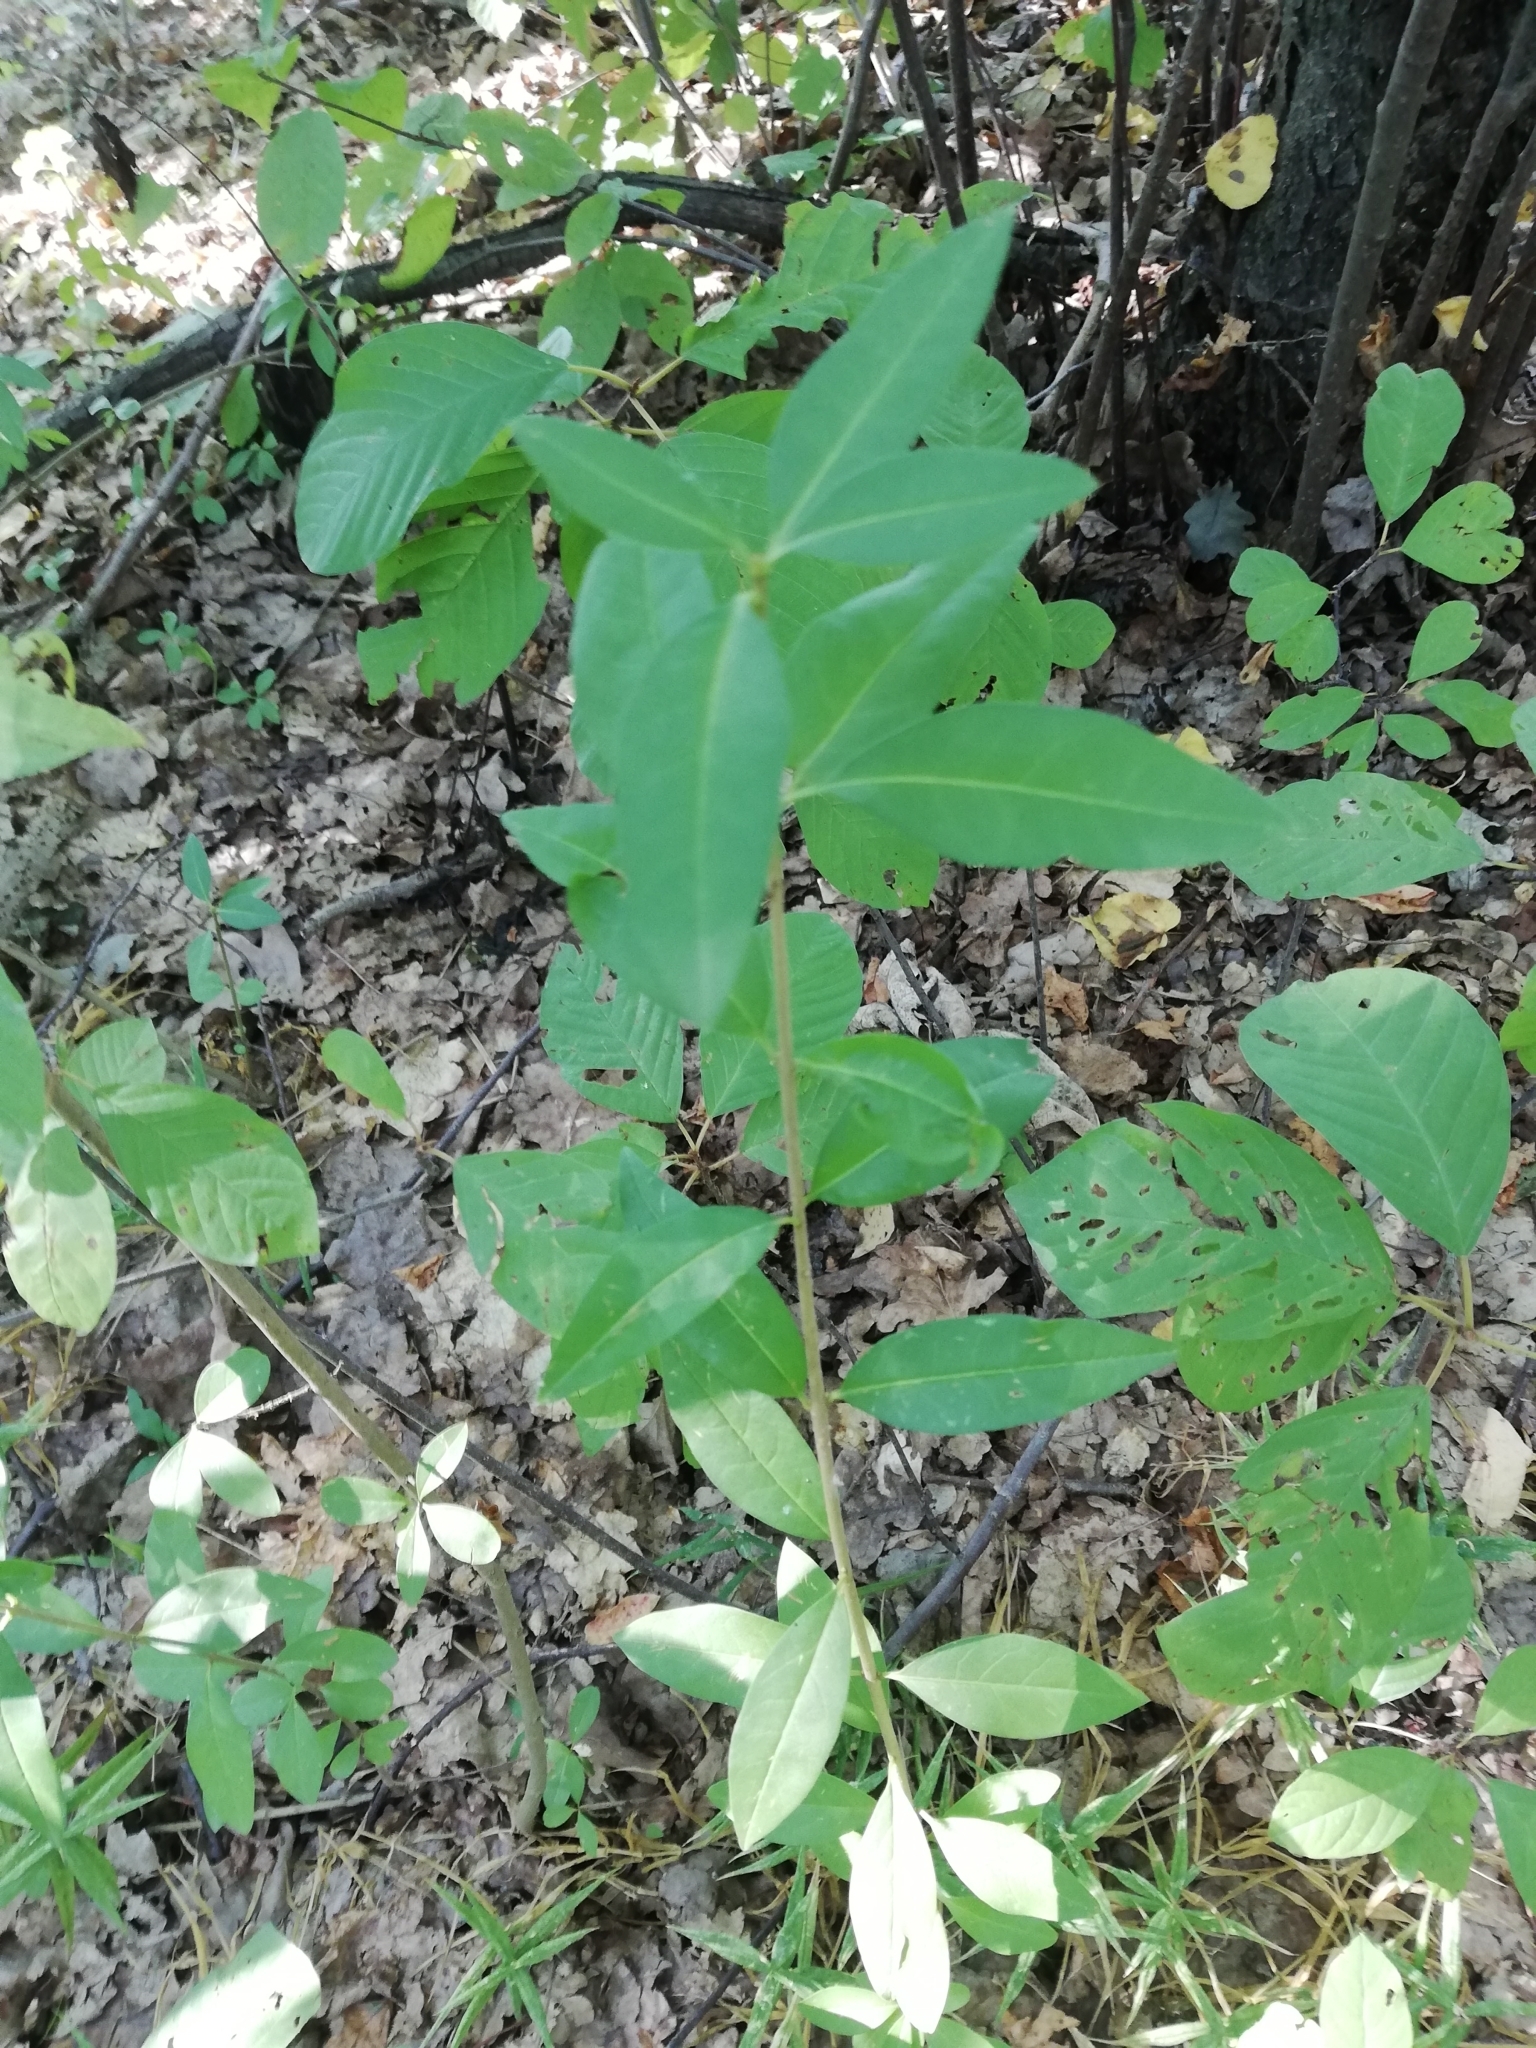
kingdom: Plantae
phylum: Tracheophyta
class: Magnoliopsida
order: Lamiales
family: Oleaceae
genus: Ligustrum
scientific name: Ligustrum vulgare
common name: Wild privet
